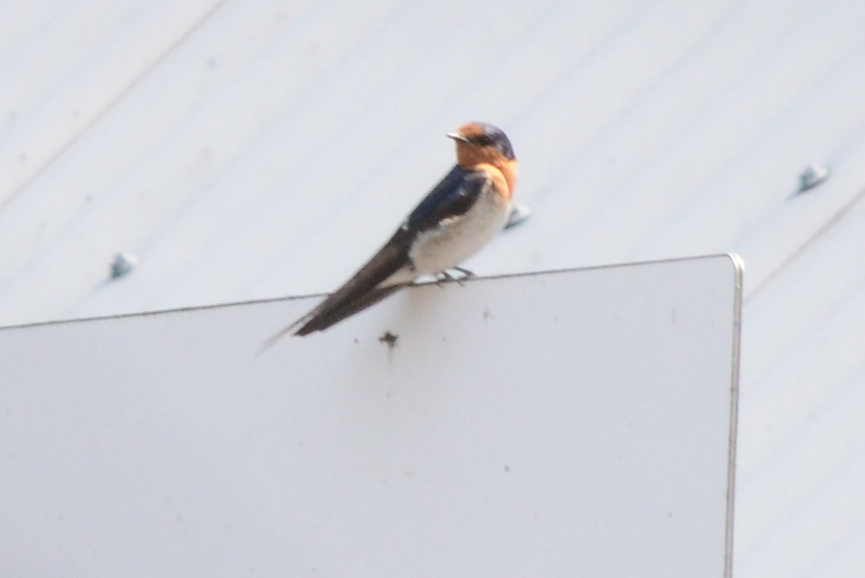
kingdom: Animalia
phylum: Chordata
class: Aves
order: Passeriformes
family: Hirundinidae
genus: Hirundo
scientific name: Hirundo neoxena
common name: Welcome swallow
